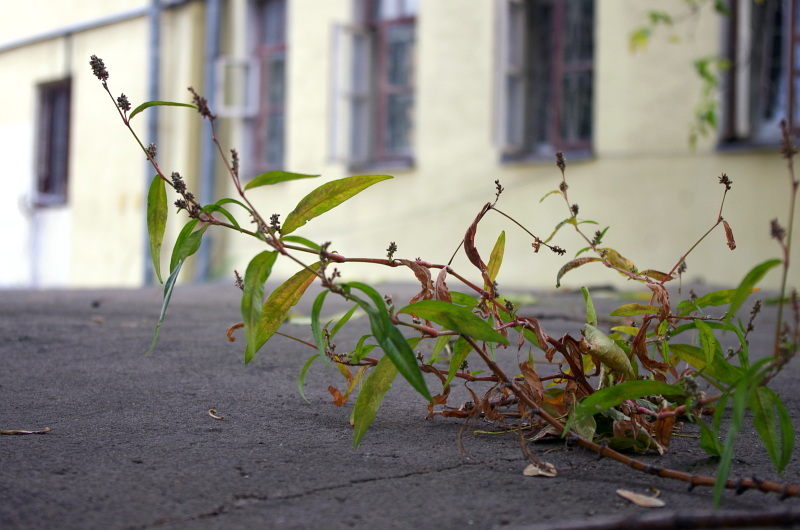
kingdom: Plantae
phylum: Tracheophyta
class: Magnoliopsida
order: Caryophyllales
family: Polygonaceae
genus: Persicaria
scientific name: Persicaria lapathifolia
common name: Curlytop knotweed
